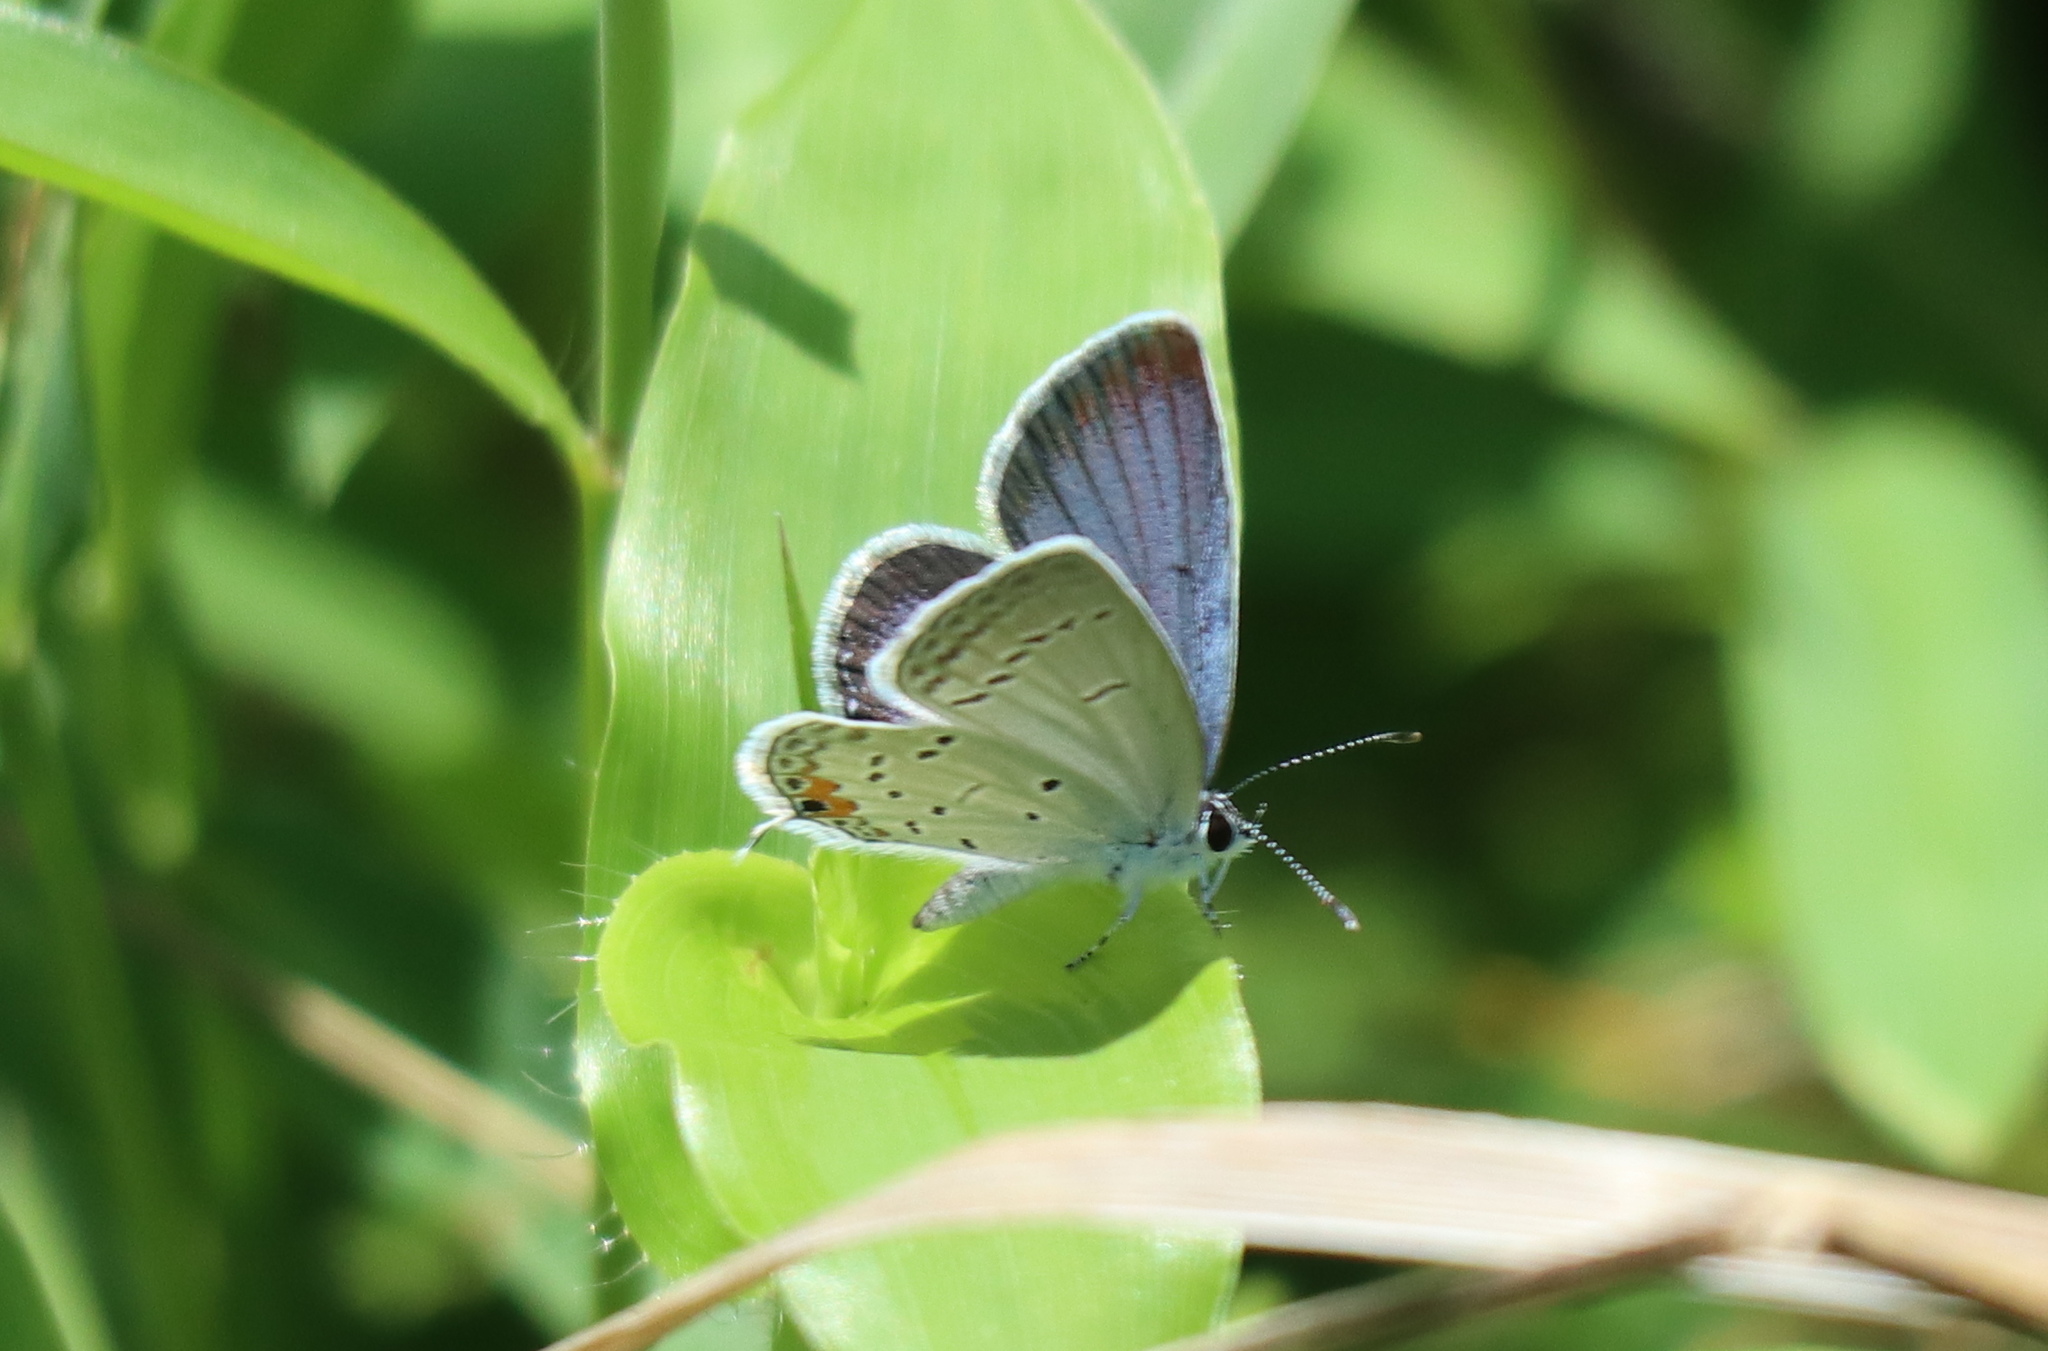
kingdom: Animalia
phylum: Arthropoda
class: Insecta
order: Lepidoptera
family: Lycaenidae
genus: Elkalyce
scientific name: Elkalyce comyntas
